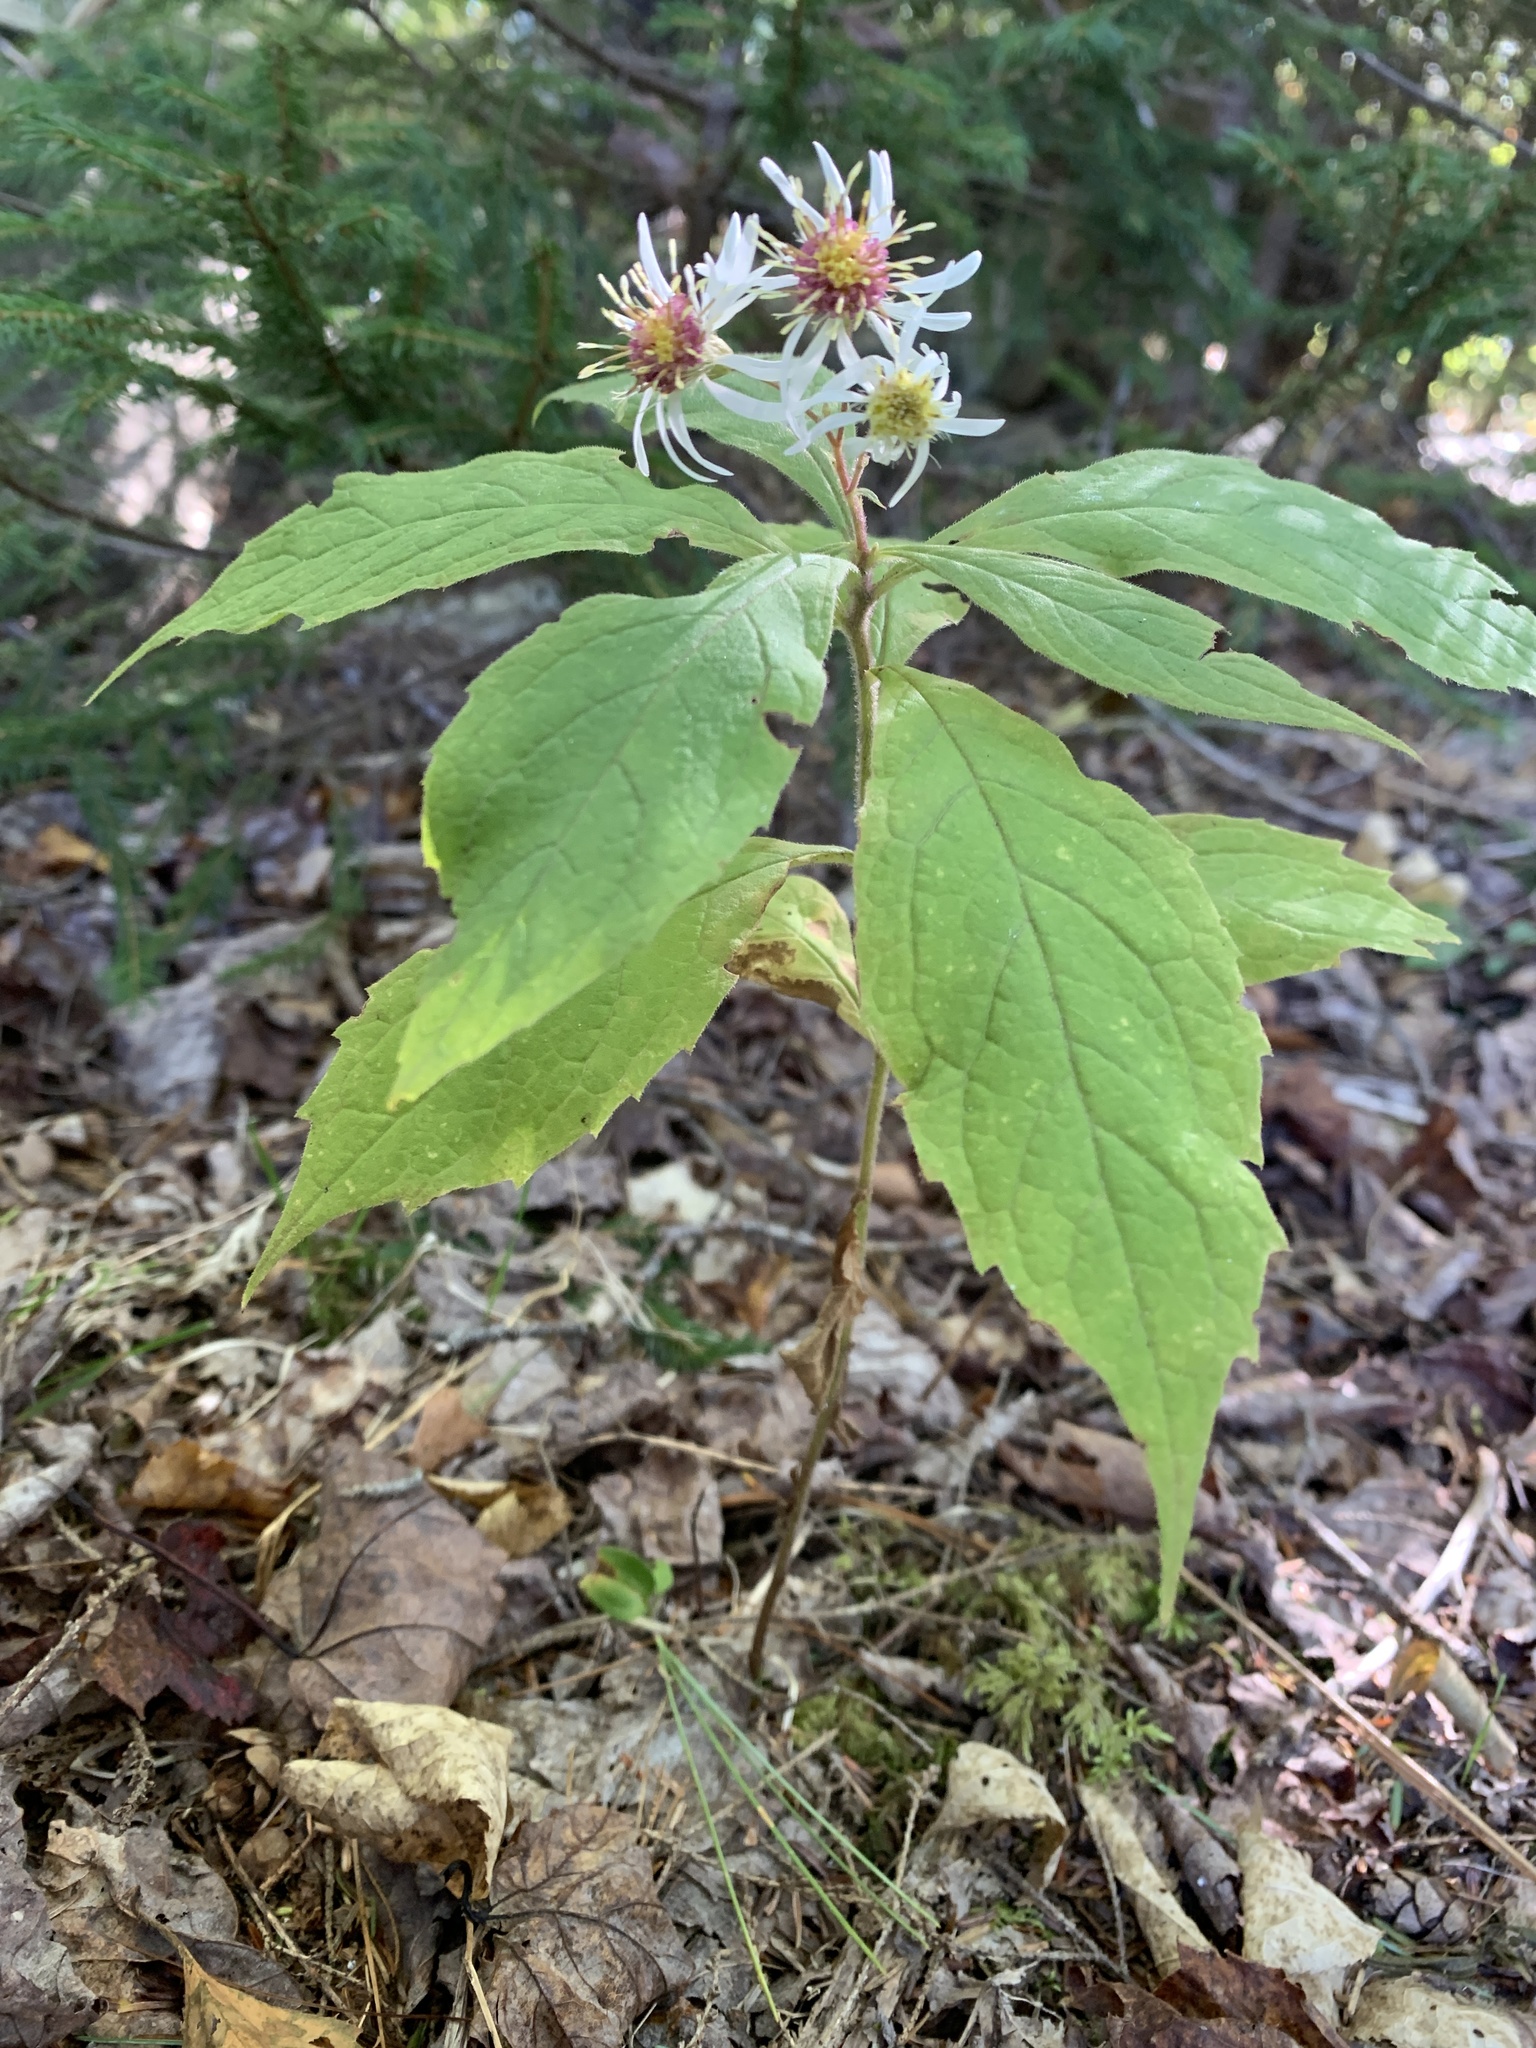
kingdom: Plantae
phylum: Tracheophyta
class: Magnoliopsida
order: Asterales
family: Asteraceae
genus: Oclemena
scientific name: Oclemena acuminata
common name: Mountain aster
